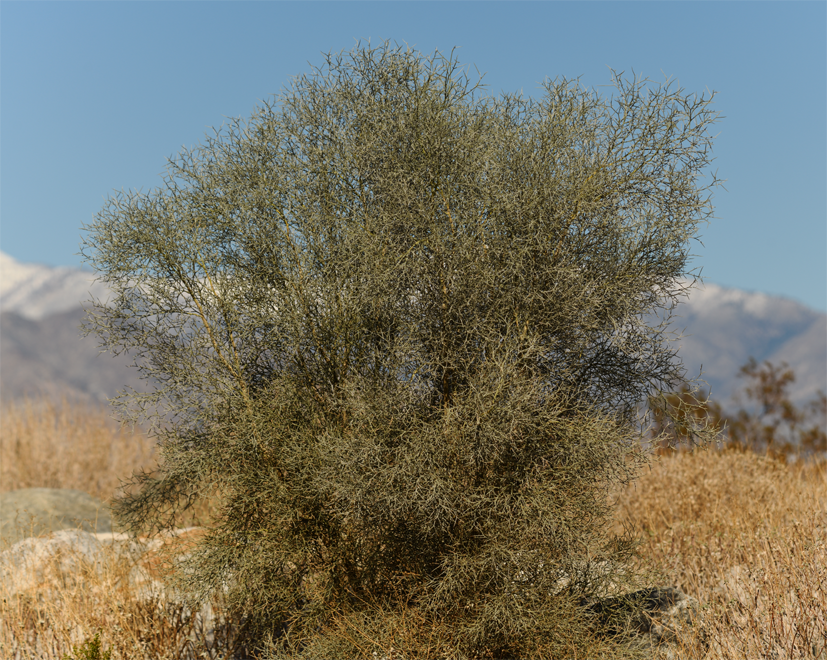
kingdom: Plantae
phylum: Tracheophyta
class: Magnoliopsida
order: Fabales
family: Fabaceae
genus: Psorothamnus
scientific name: Psorothamnus spinosus
